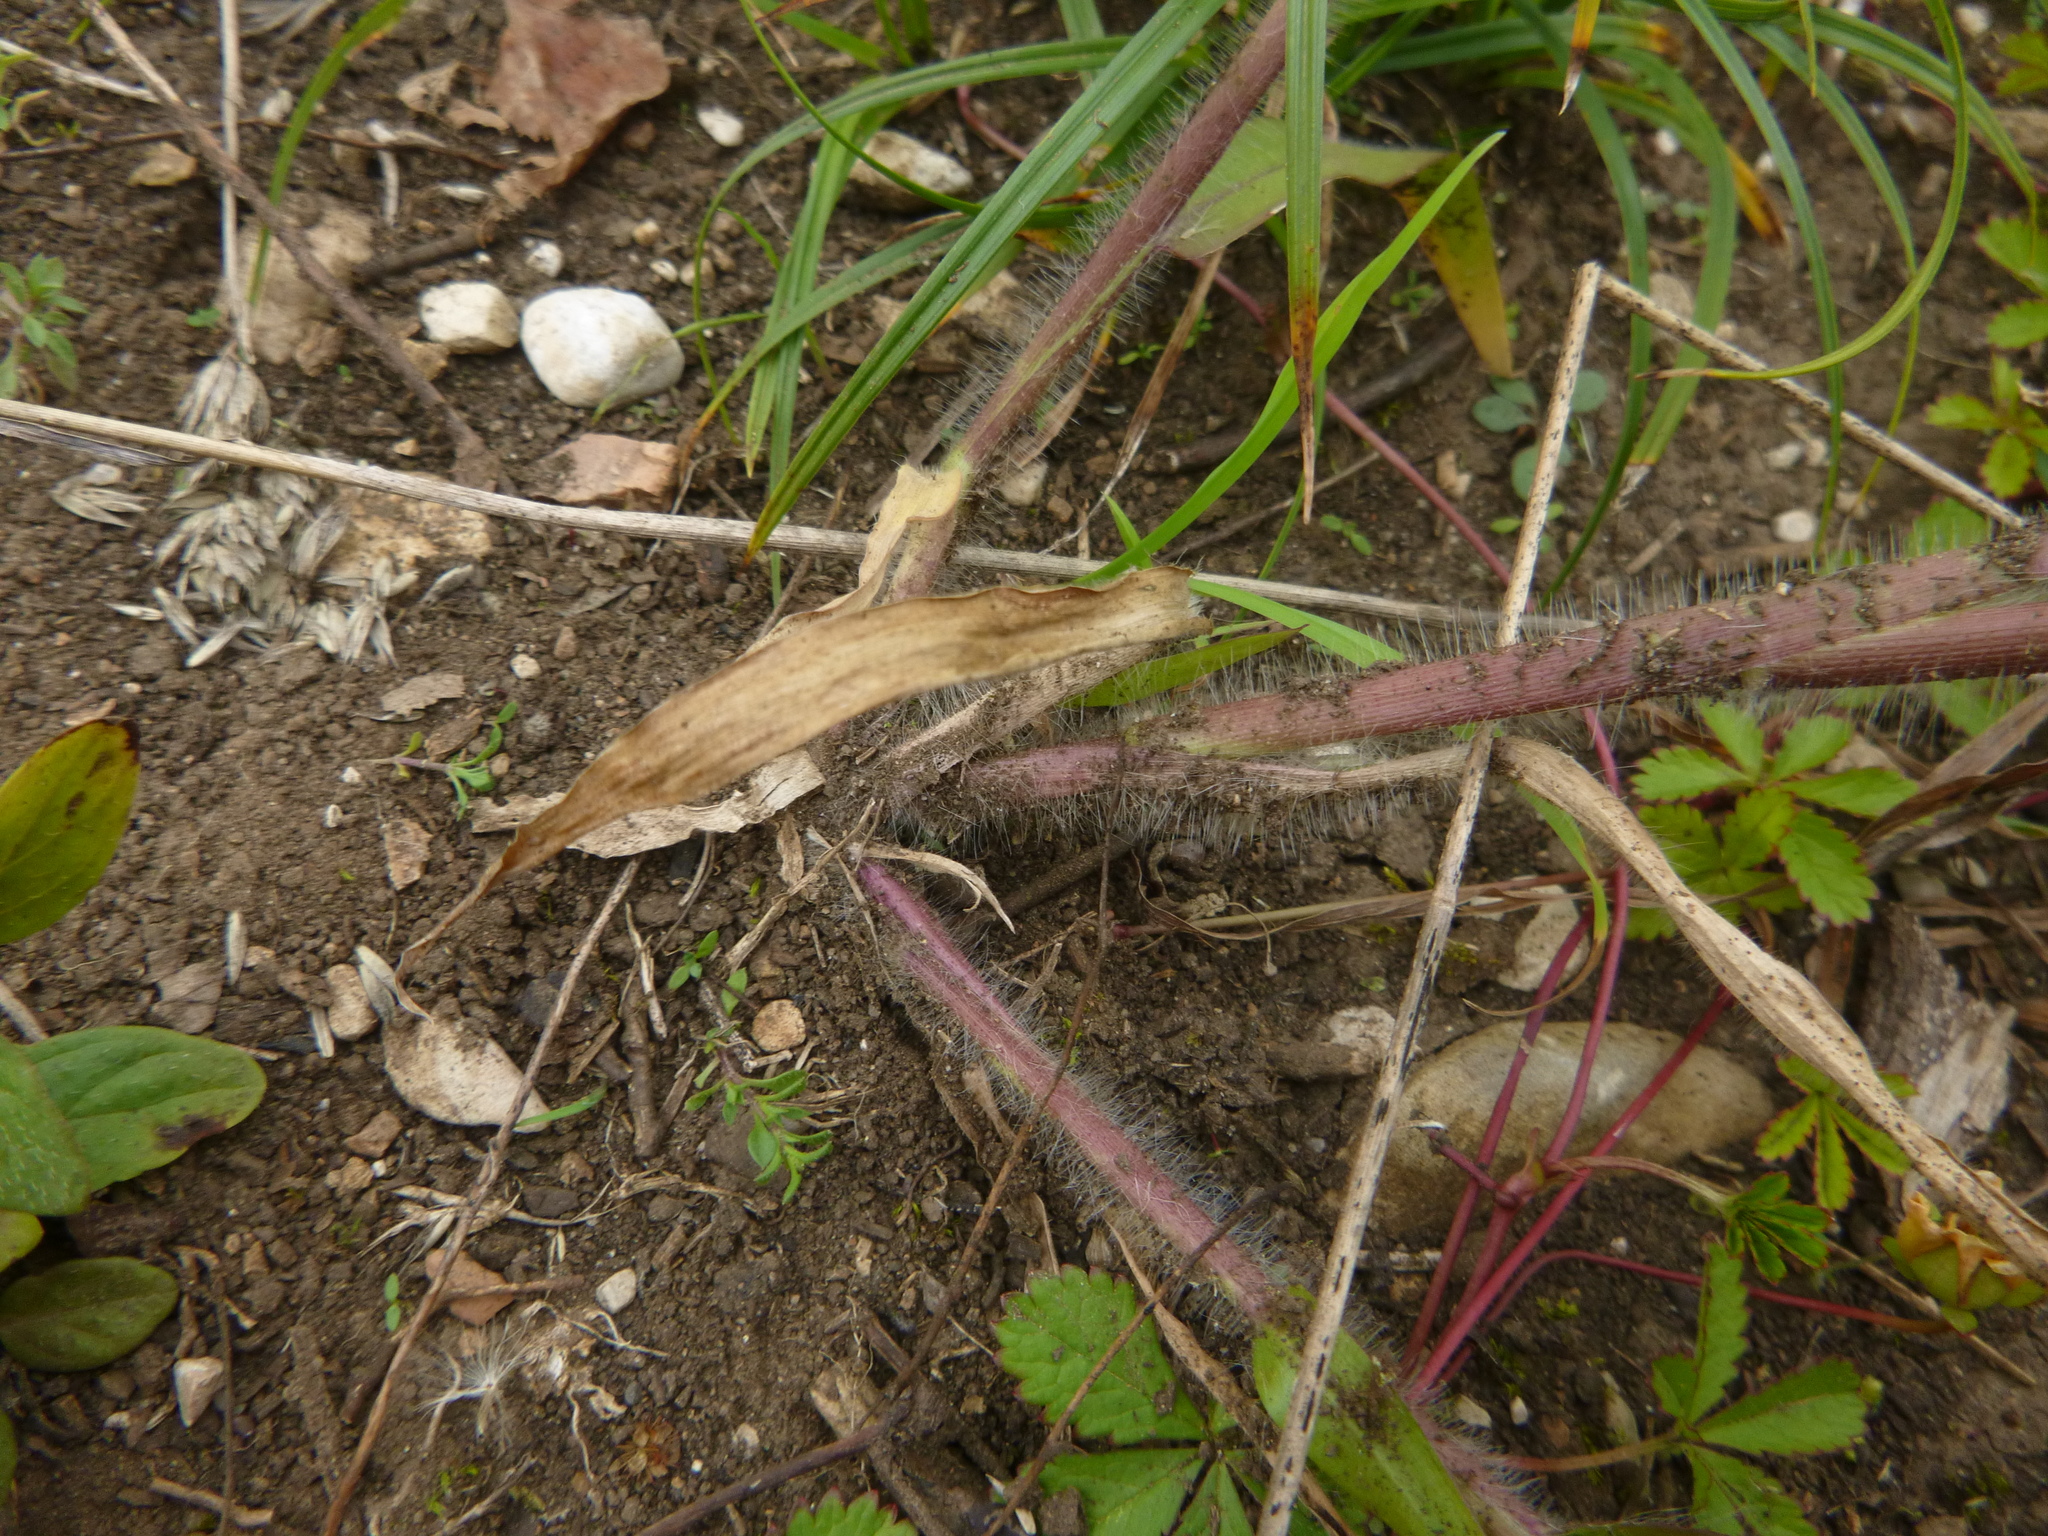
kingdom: Plantae
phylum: Tracheophyta
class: Liliopsida
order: Poales
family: Poaceae
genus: Panicum
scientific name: Panicum capillare
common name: Witch-grass
